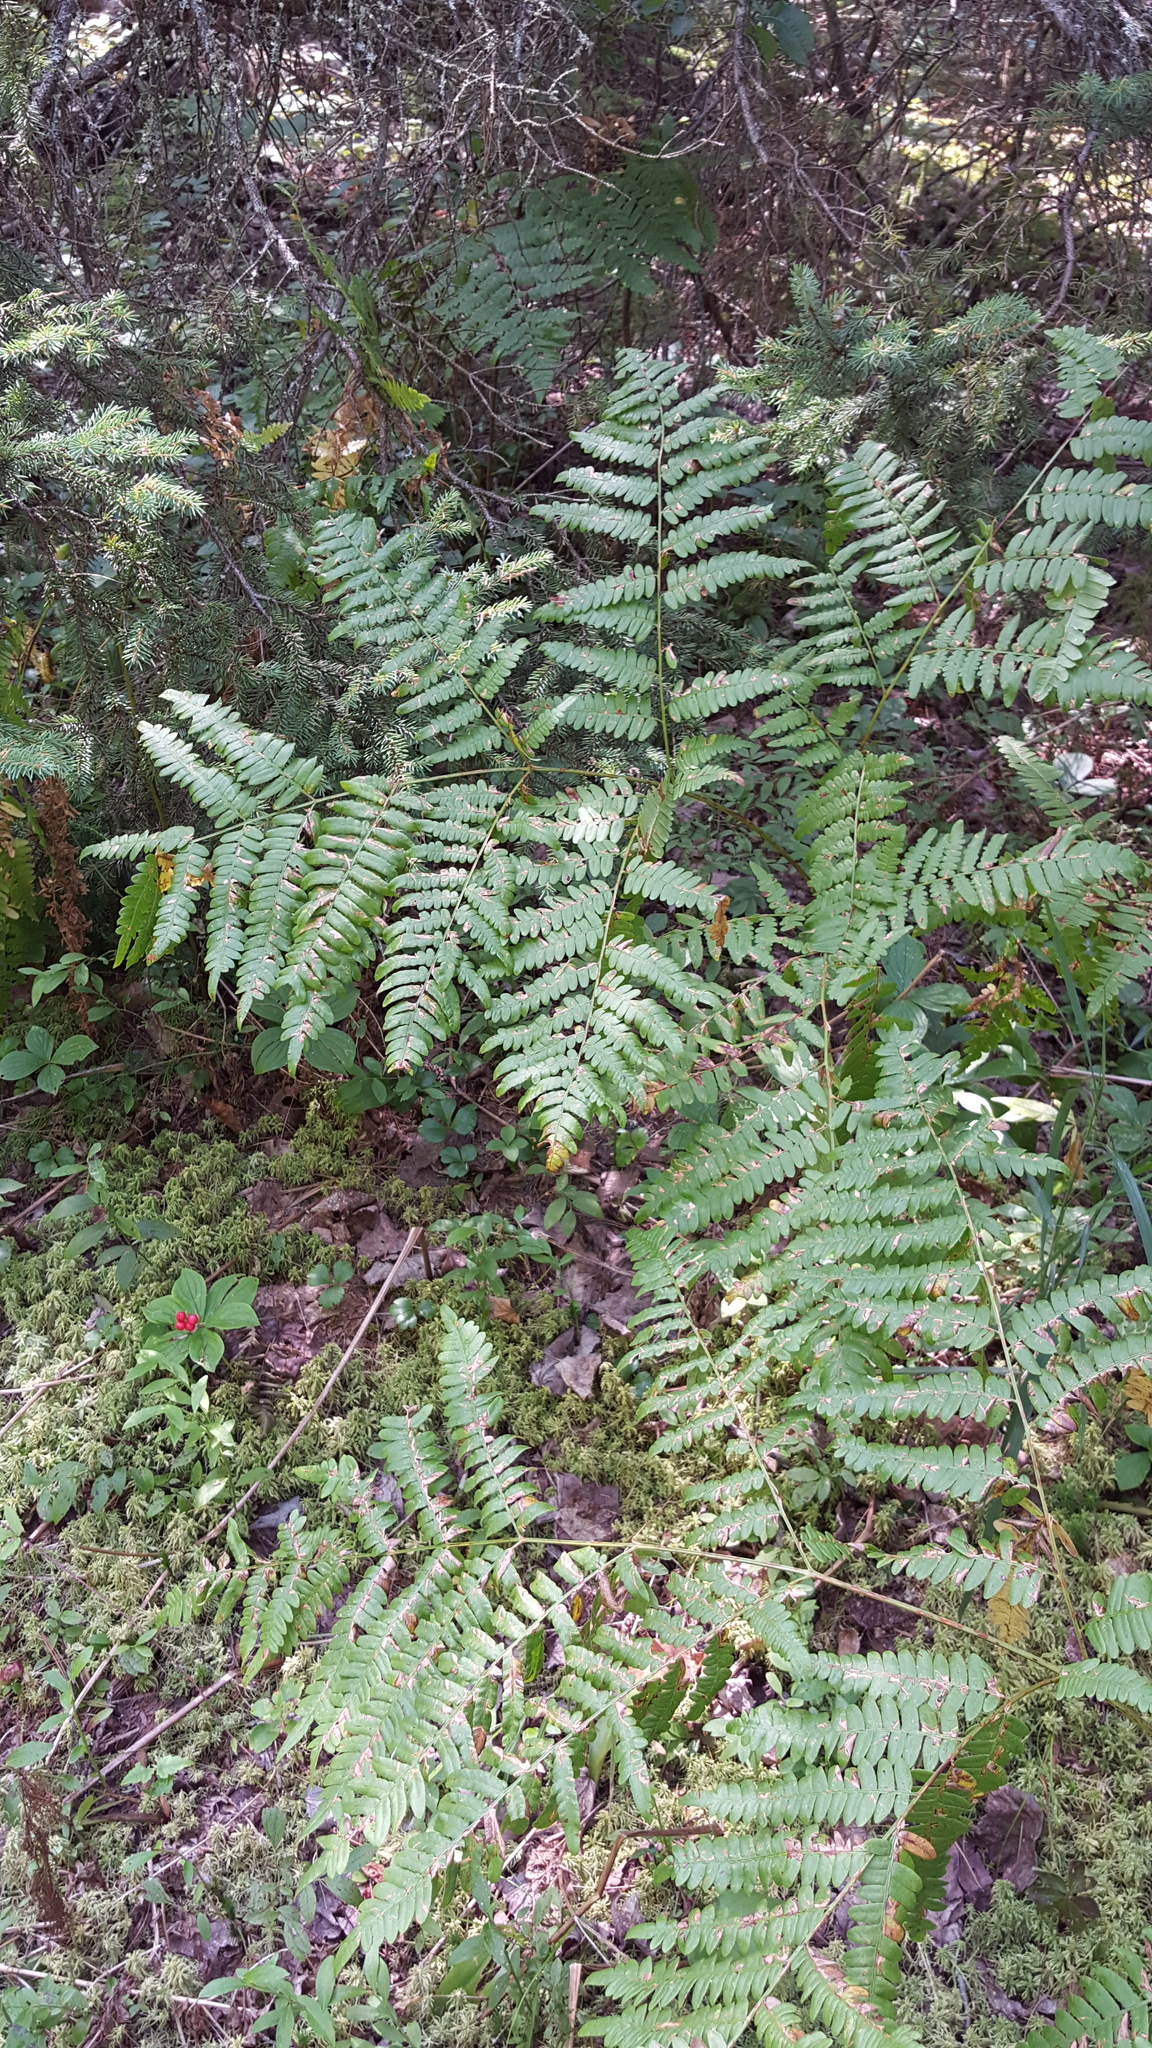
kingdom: Plantae
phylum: Tracheophyta
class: Polypodiopsida
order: Polypodiales
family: Dennstaedtiaceae
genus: Pteridium
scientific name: Pteridium aquilinum
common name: Bracken
